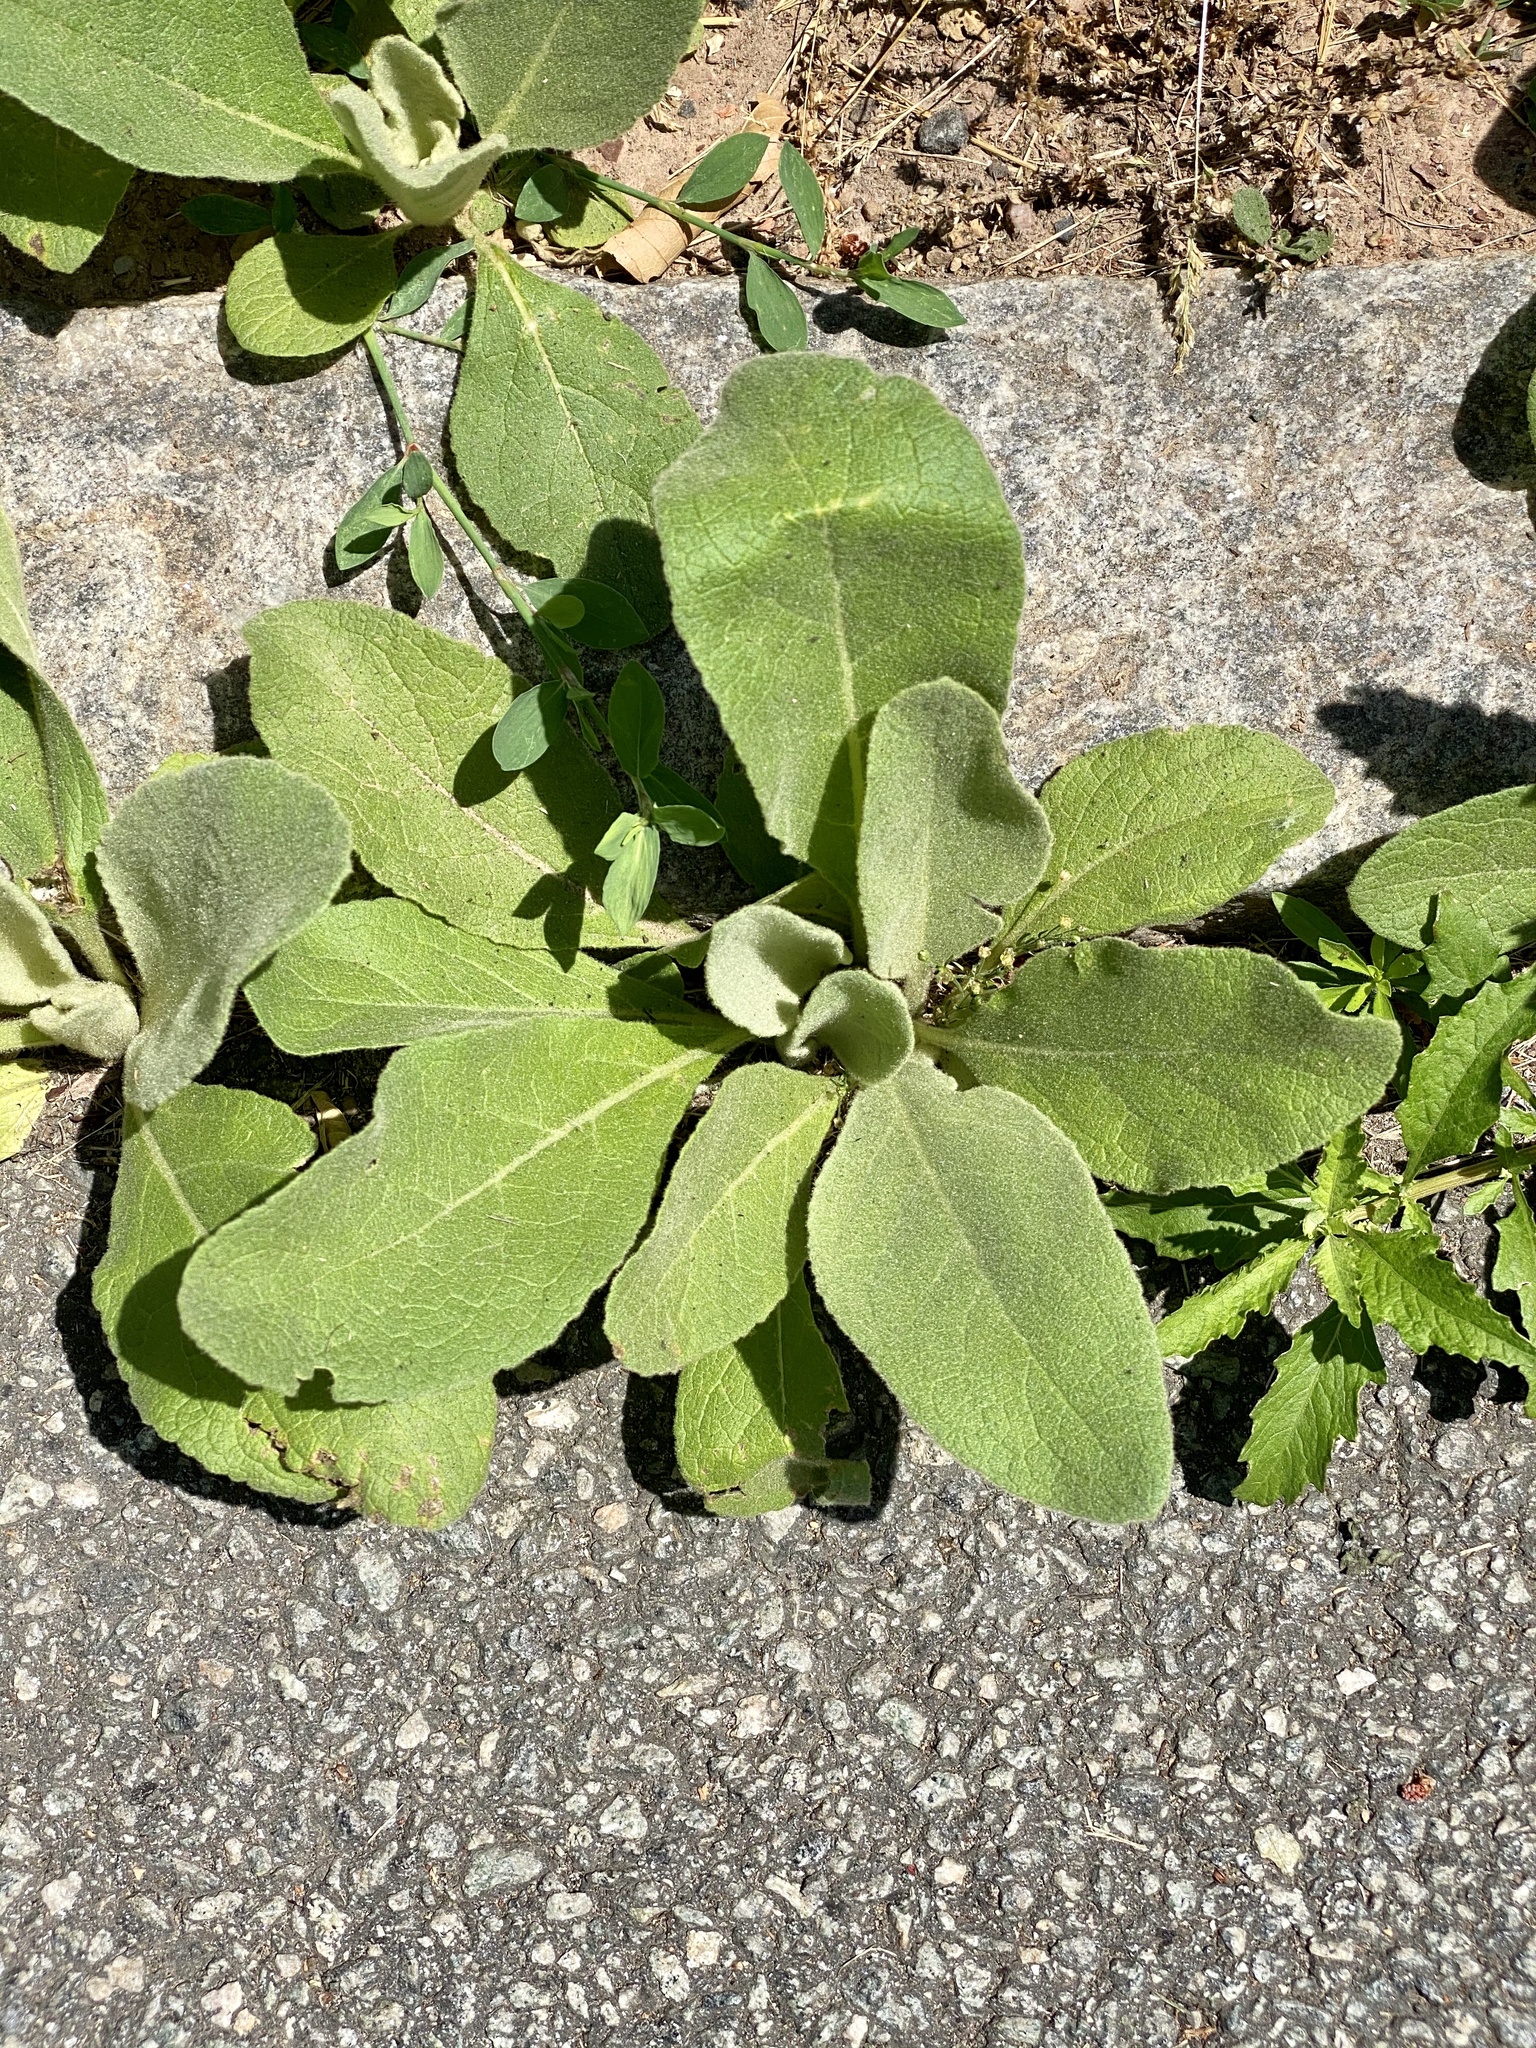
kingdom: Plantae
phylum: Tracheophyta
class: Magnoliopsida
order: Lamiales
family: Scrophulariaceae
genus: Verbascum
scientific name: Verbascum thapsus
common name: Common mullein
